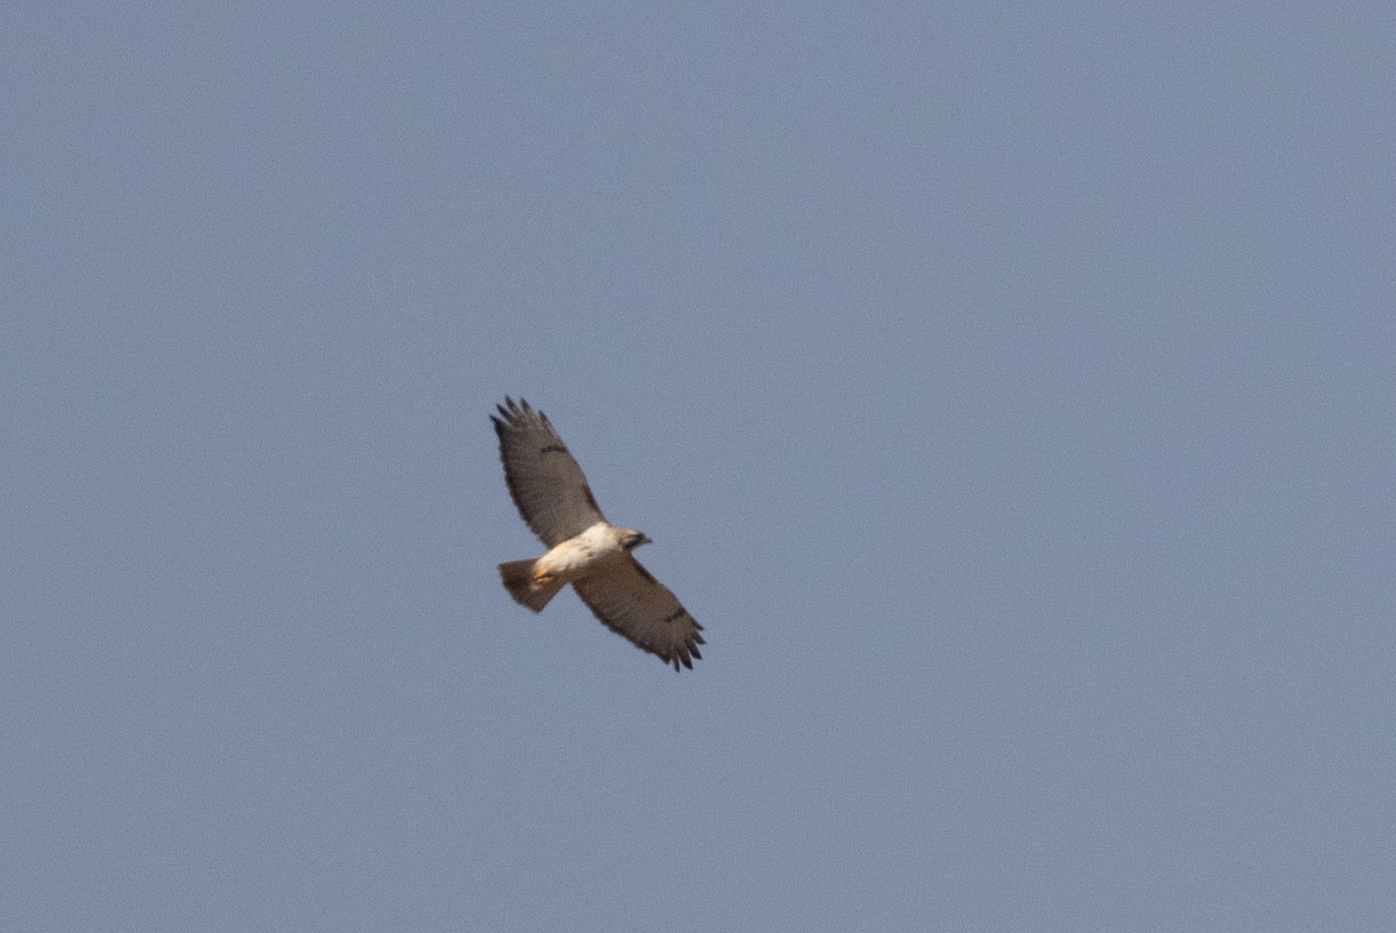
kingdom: Animalia
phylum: Chordata
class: Aves
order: Accipitriformes
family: Accipitridae
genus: Buteo
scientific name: Buteo jamaicensis
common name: Red-tailed hawk
